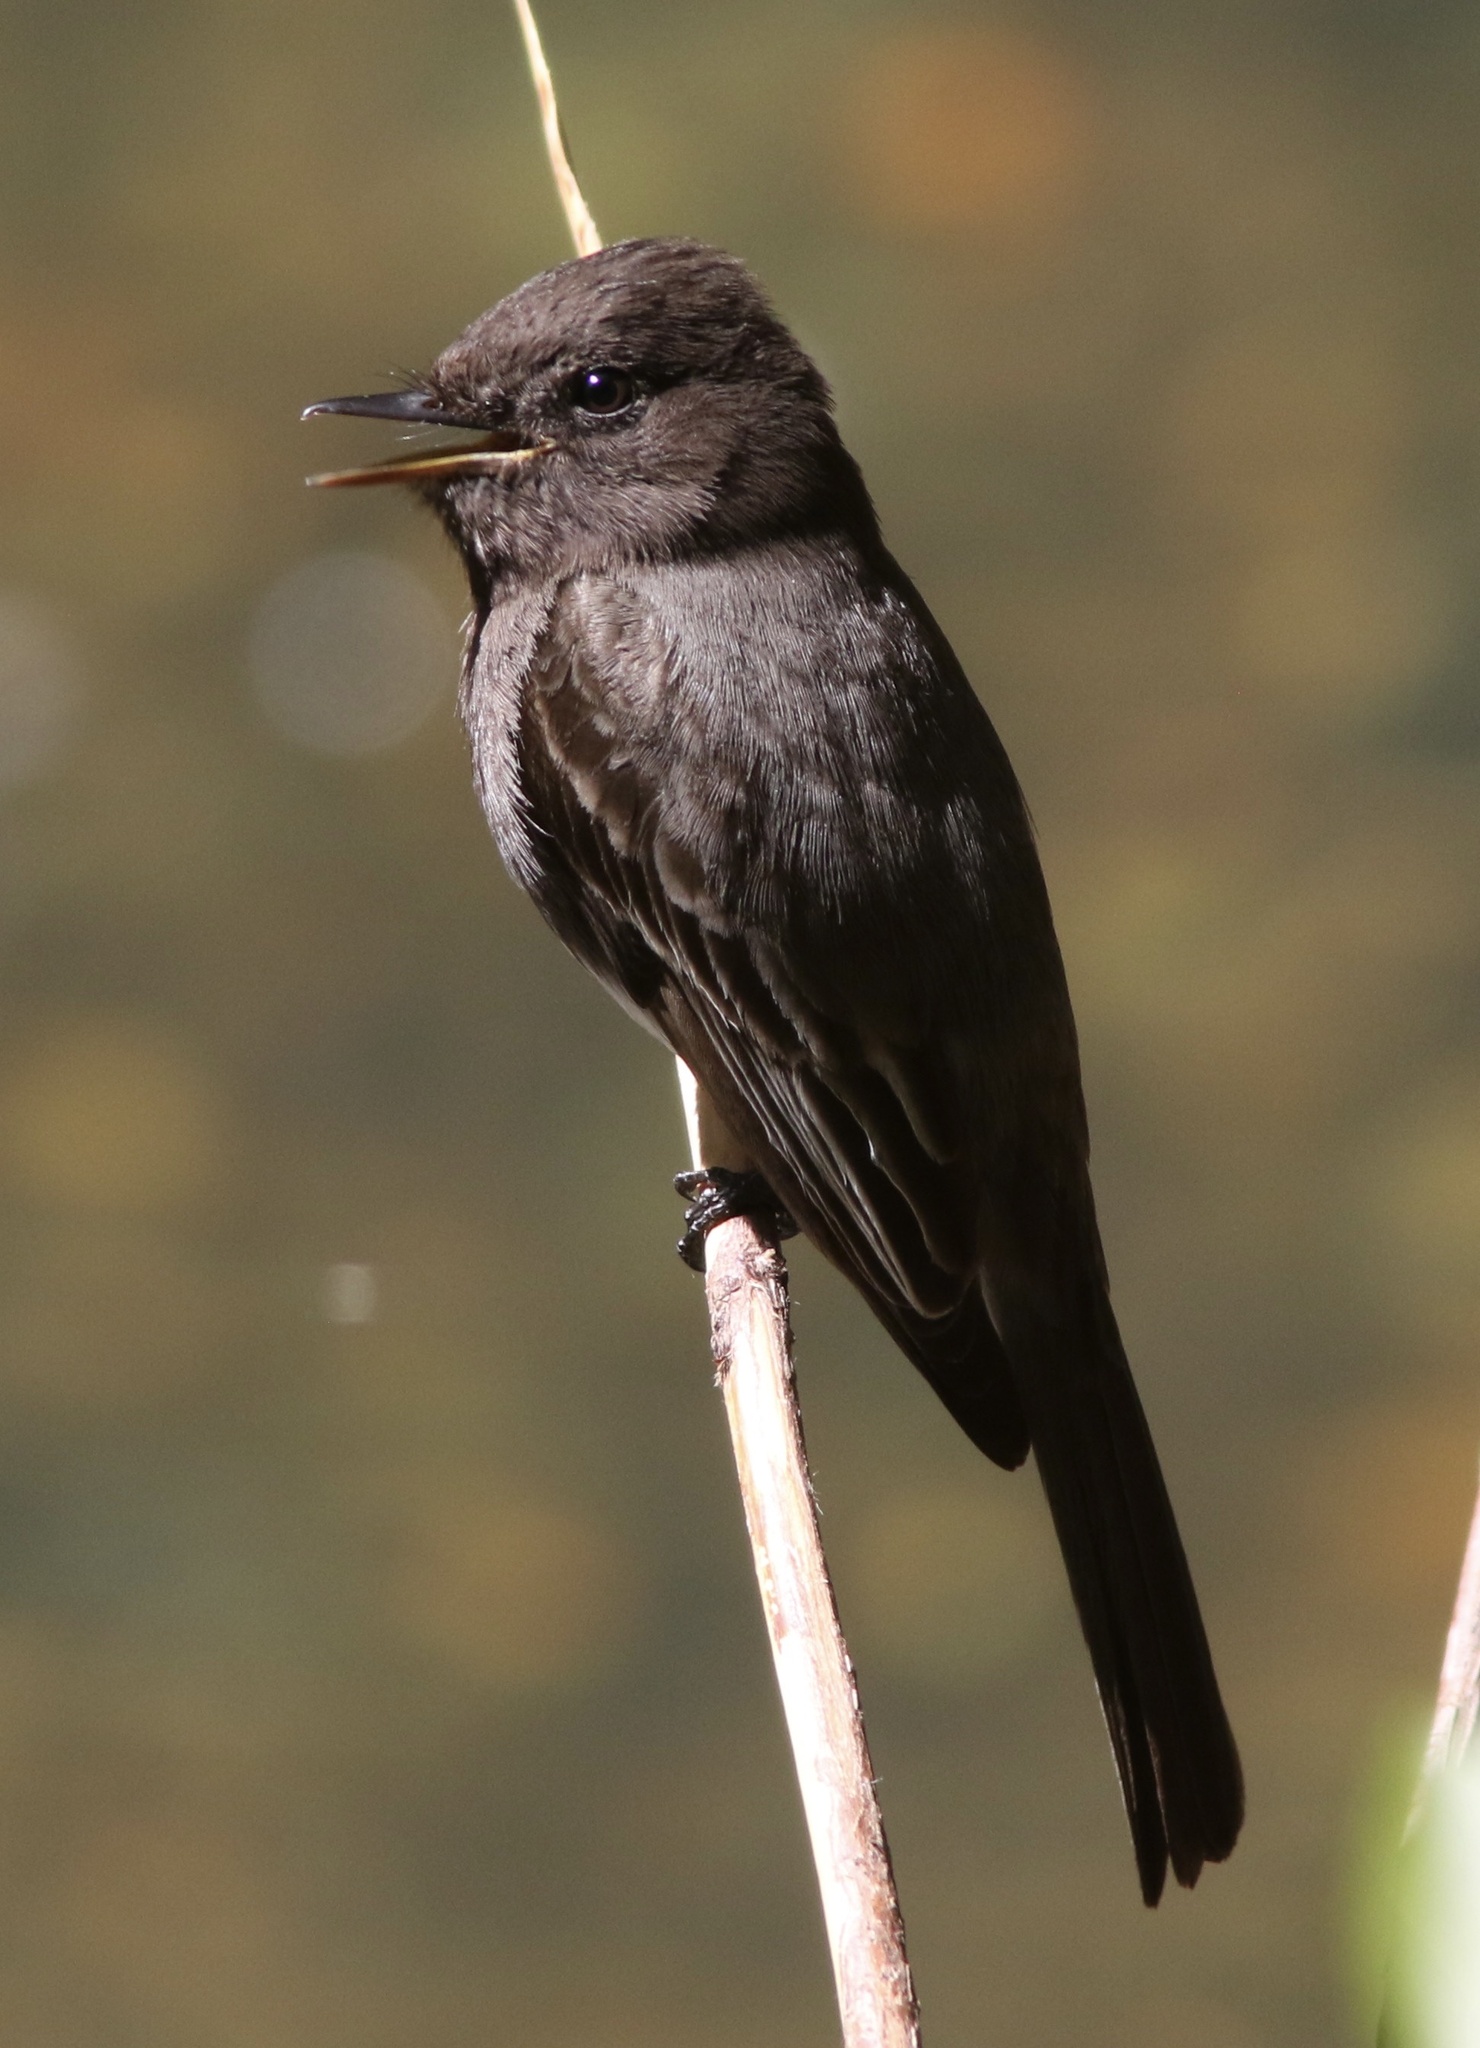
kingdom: Animalia
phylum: Chordata
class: Aves
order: Passeriformes
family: Tyrannidae
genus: Sayornis
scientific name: Sayornis nigricans
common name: Black phoebe
